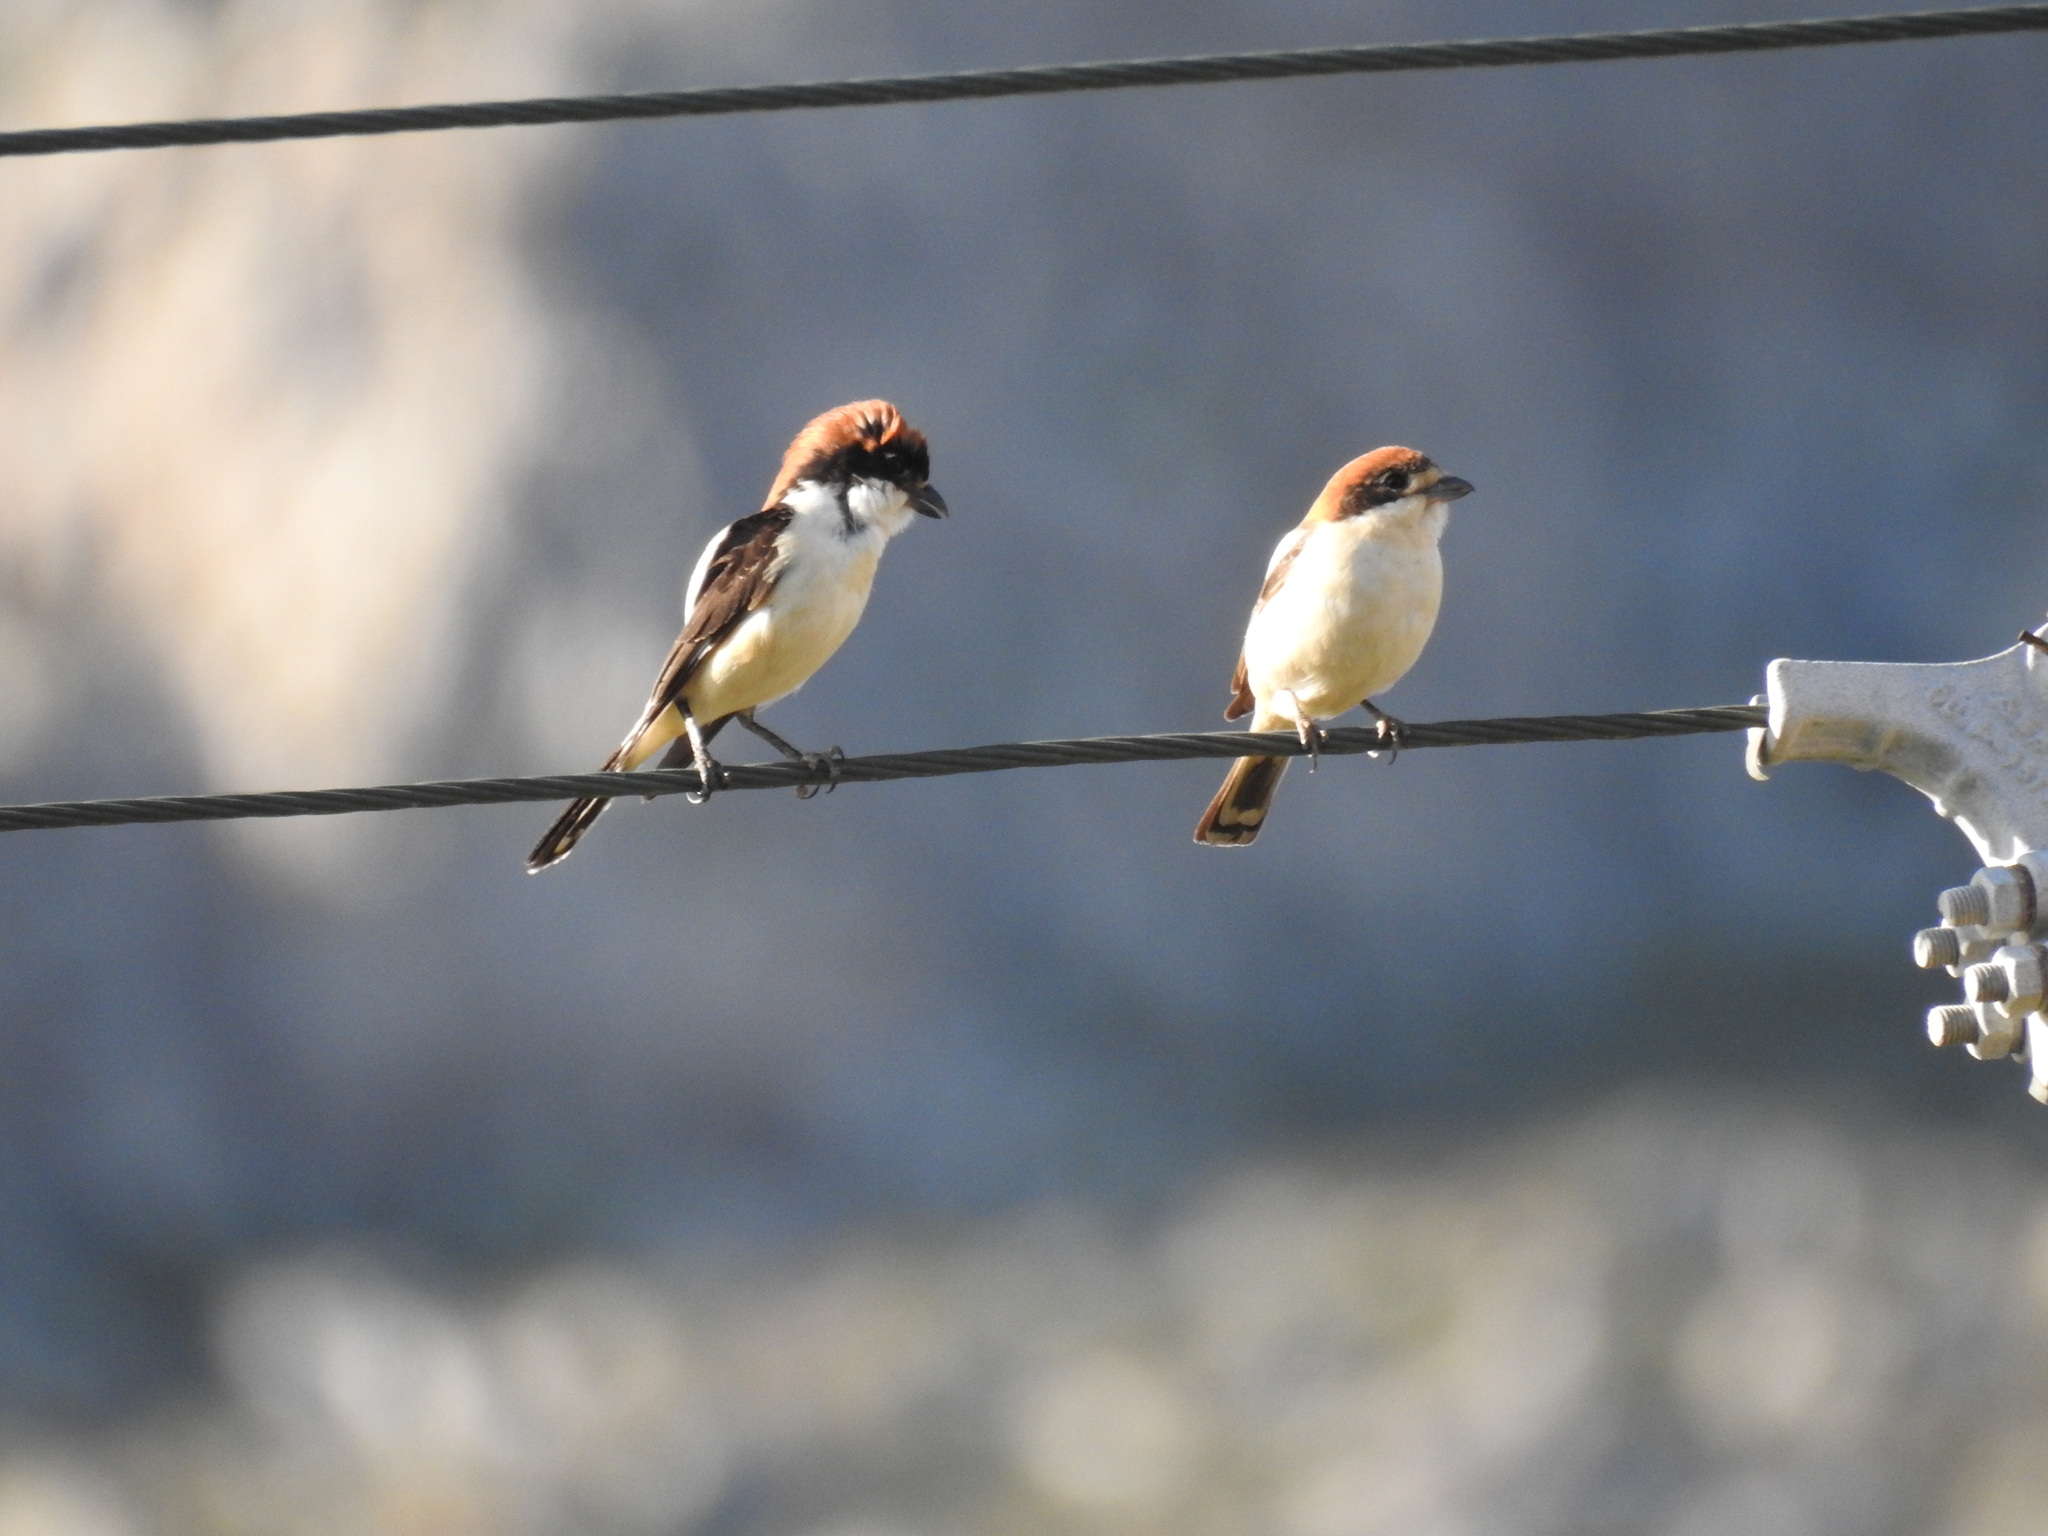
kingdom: Animalia
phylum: Chordata
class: Aves
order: Passeriformes
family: Laniidae
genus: Lanius
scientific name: Lanius senator
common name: Woodchat shrike
